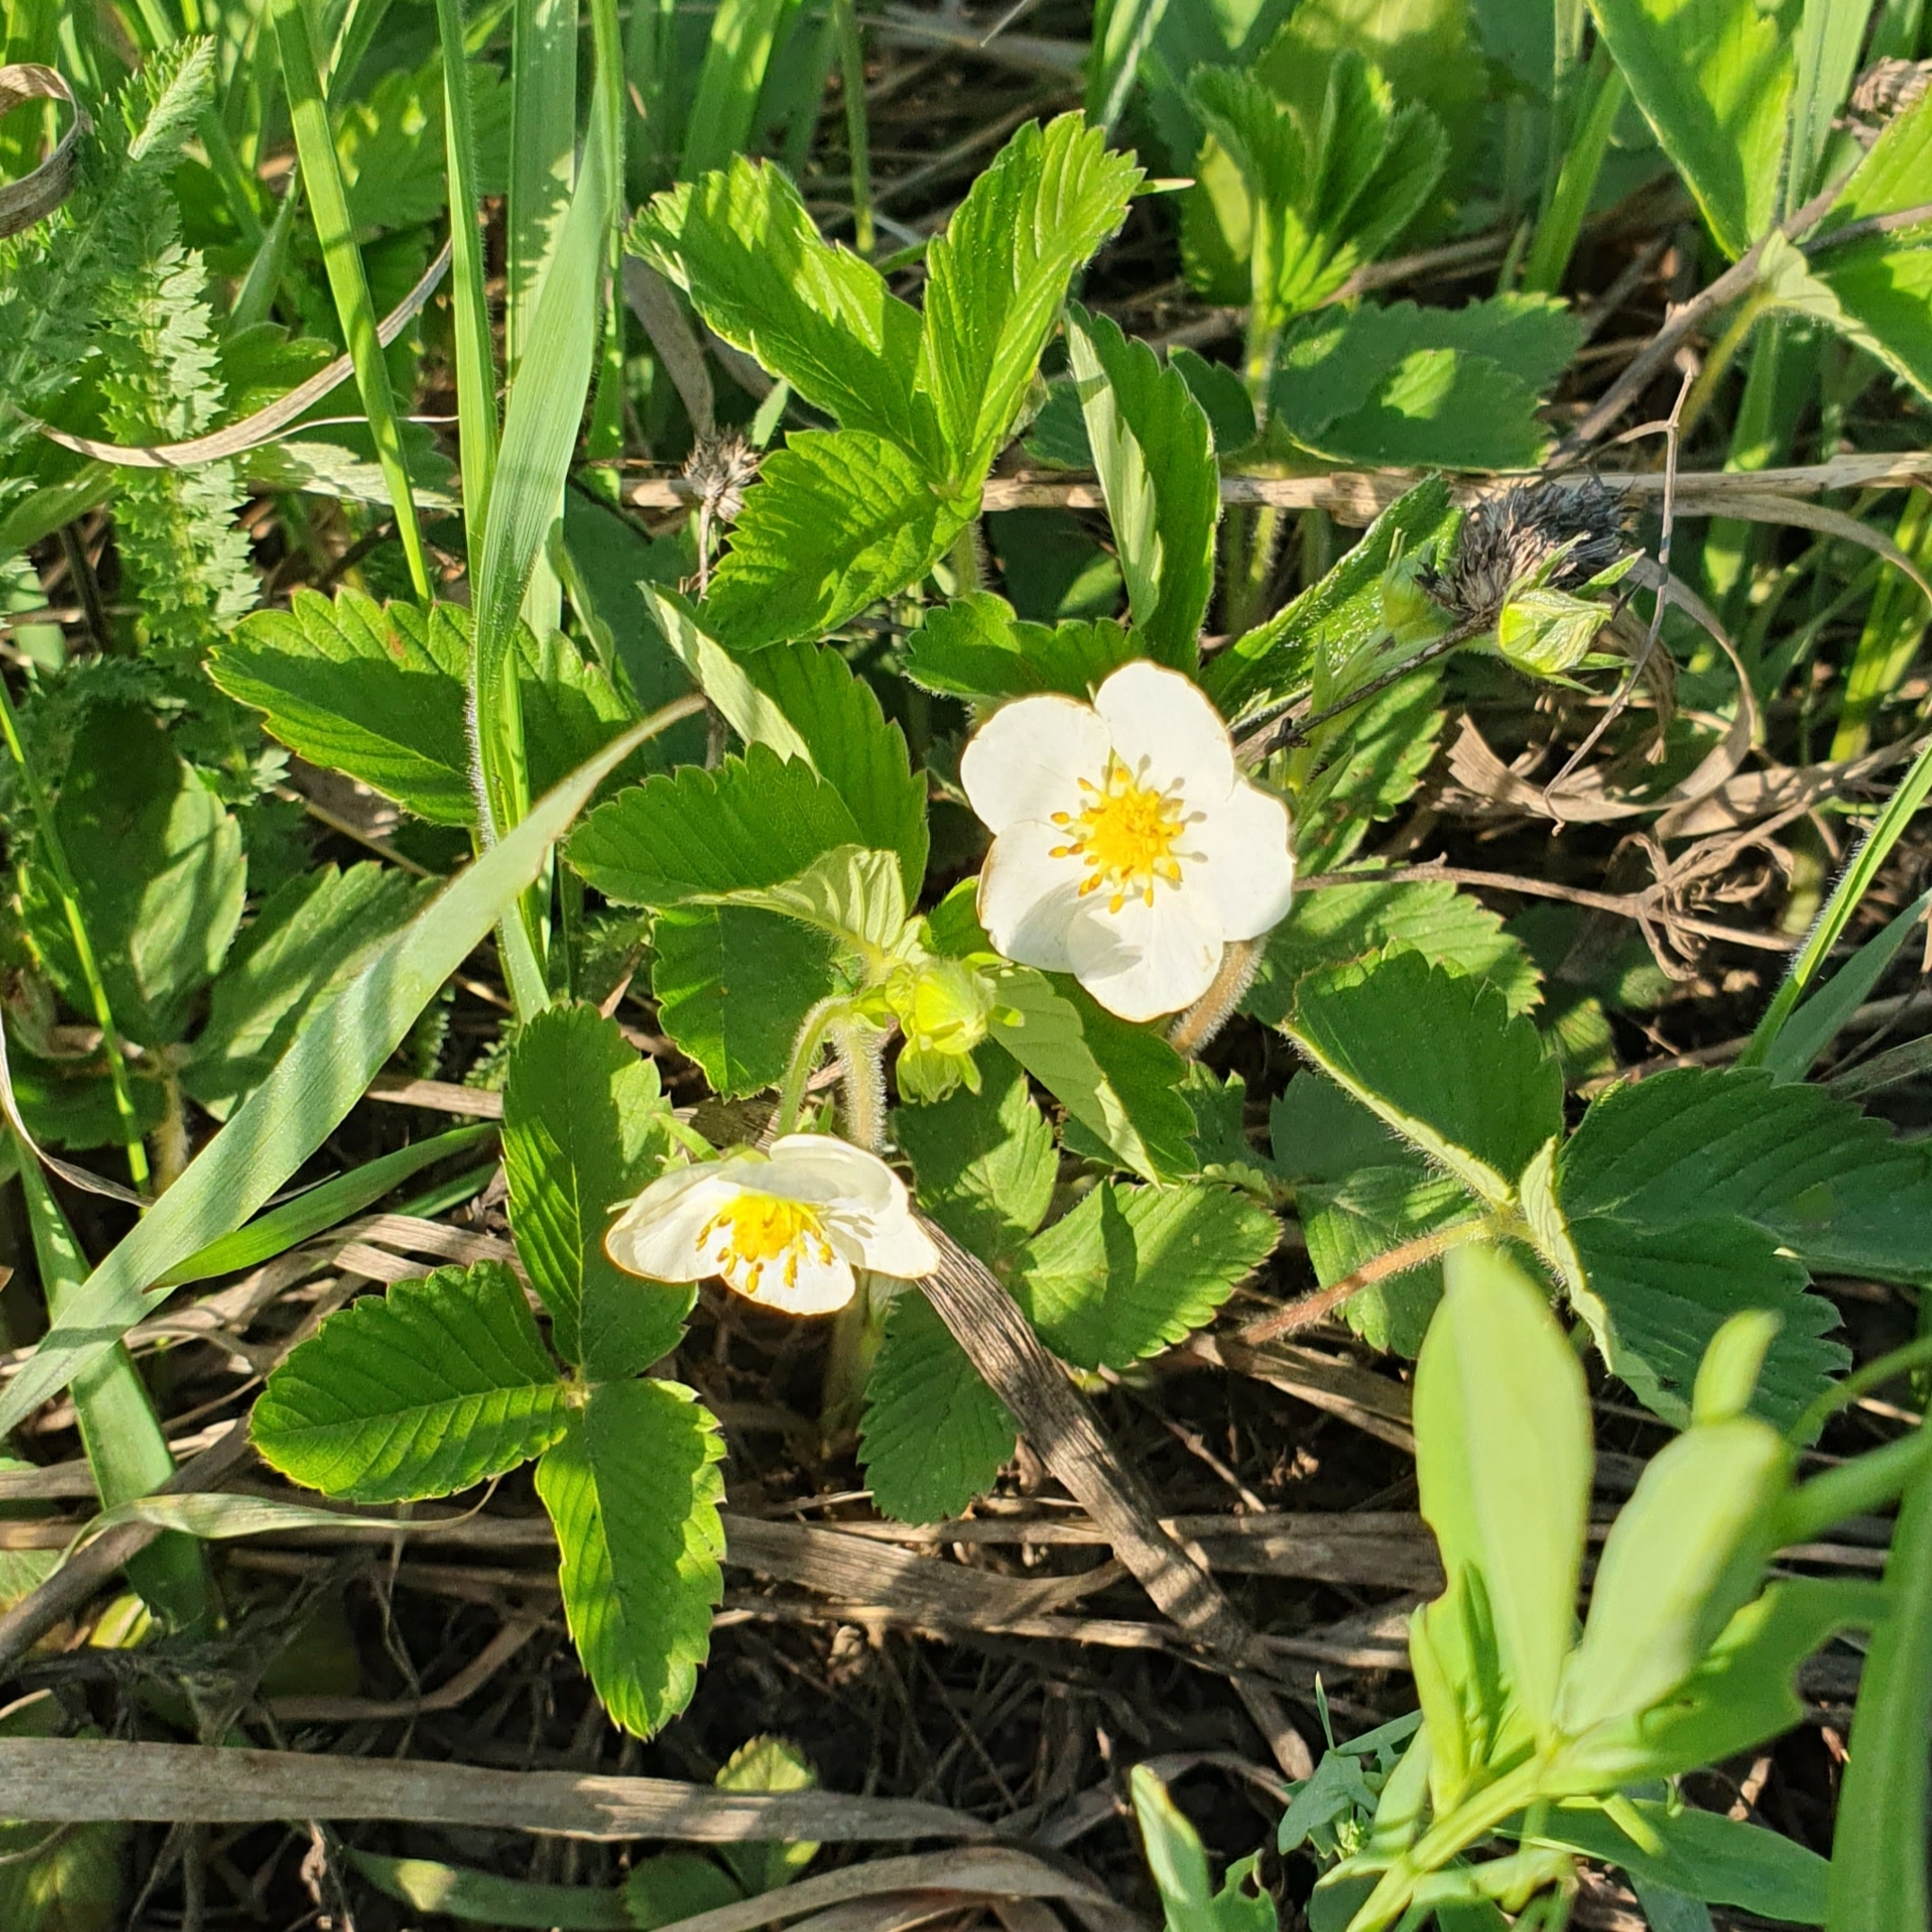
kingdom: Plantae
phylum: Tracheophyta
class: Magnoliopsida
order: Rosales
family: Rosaceae
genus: Fragaria
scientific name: Fragaria viridis
